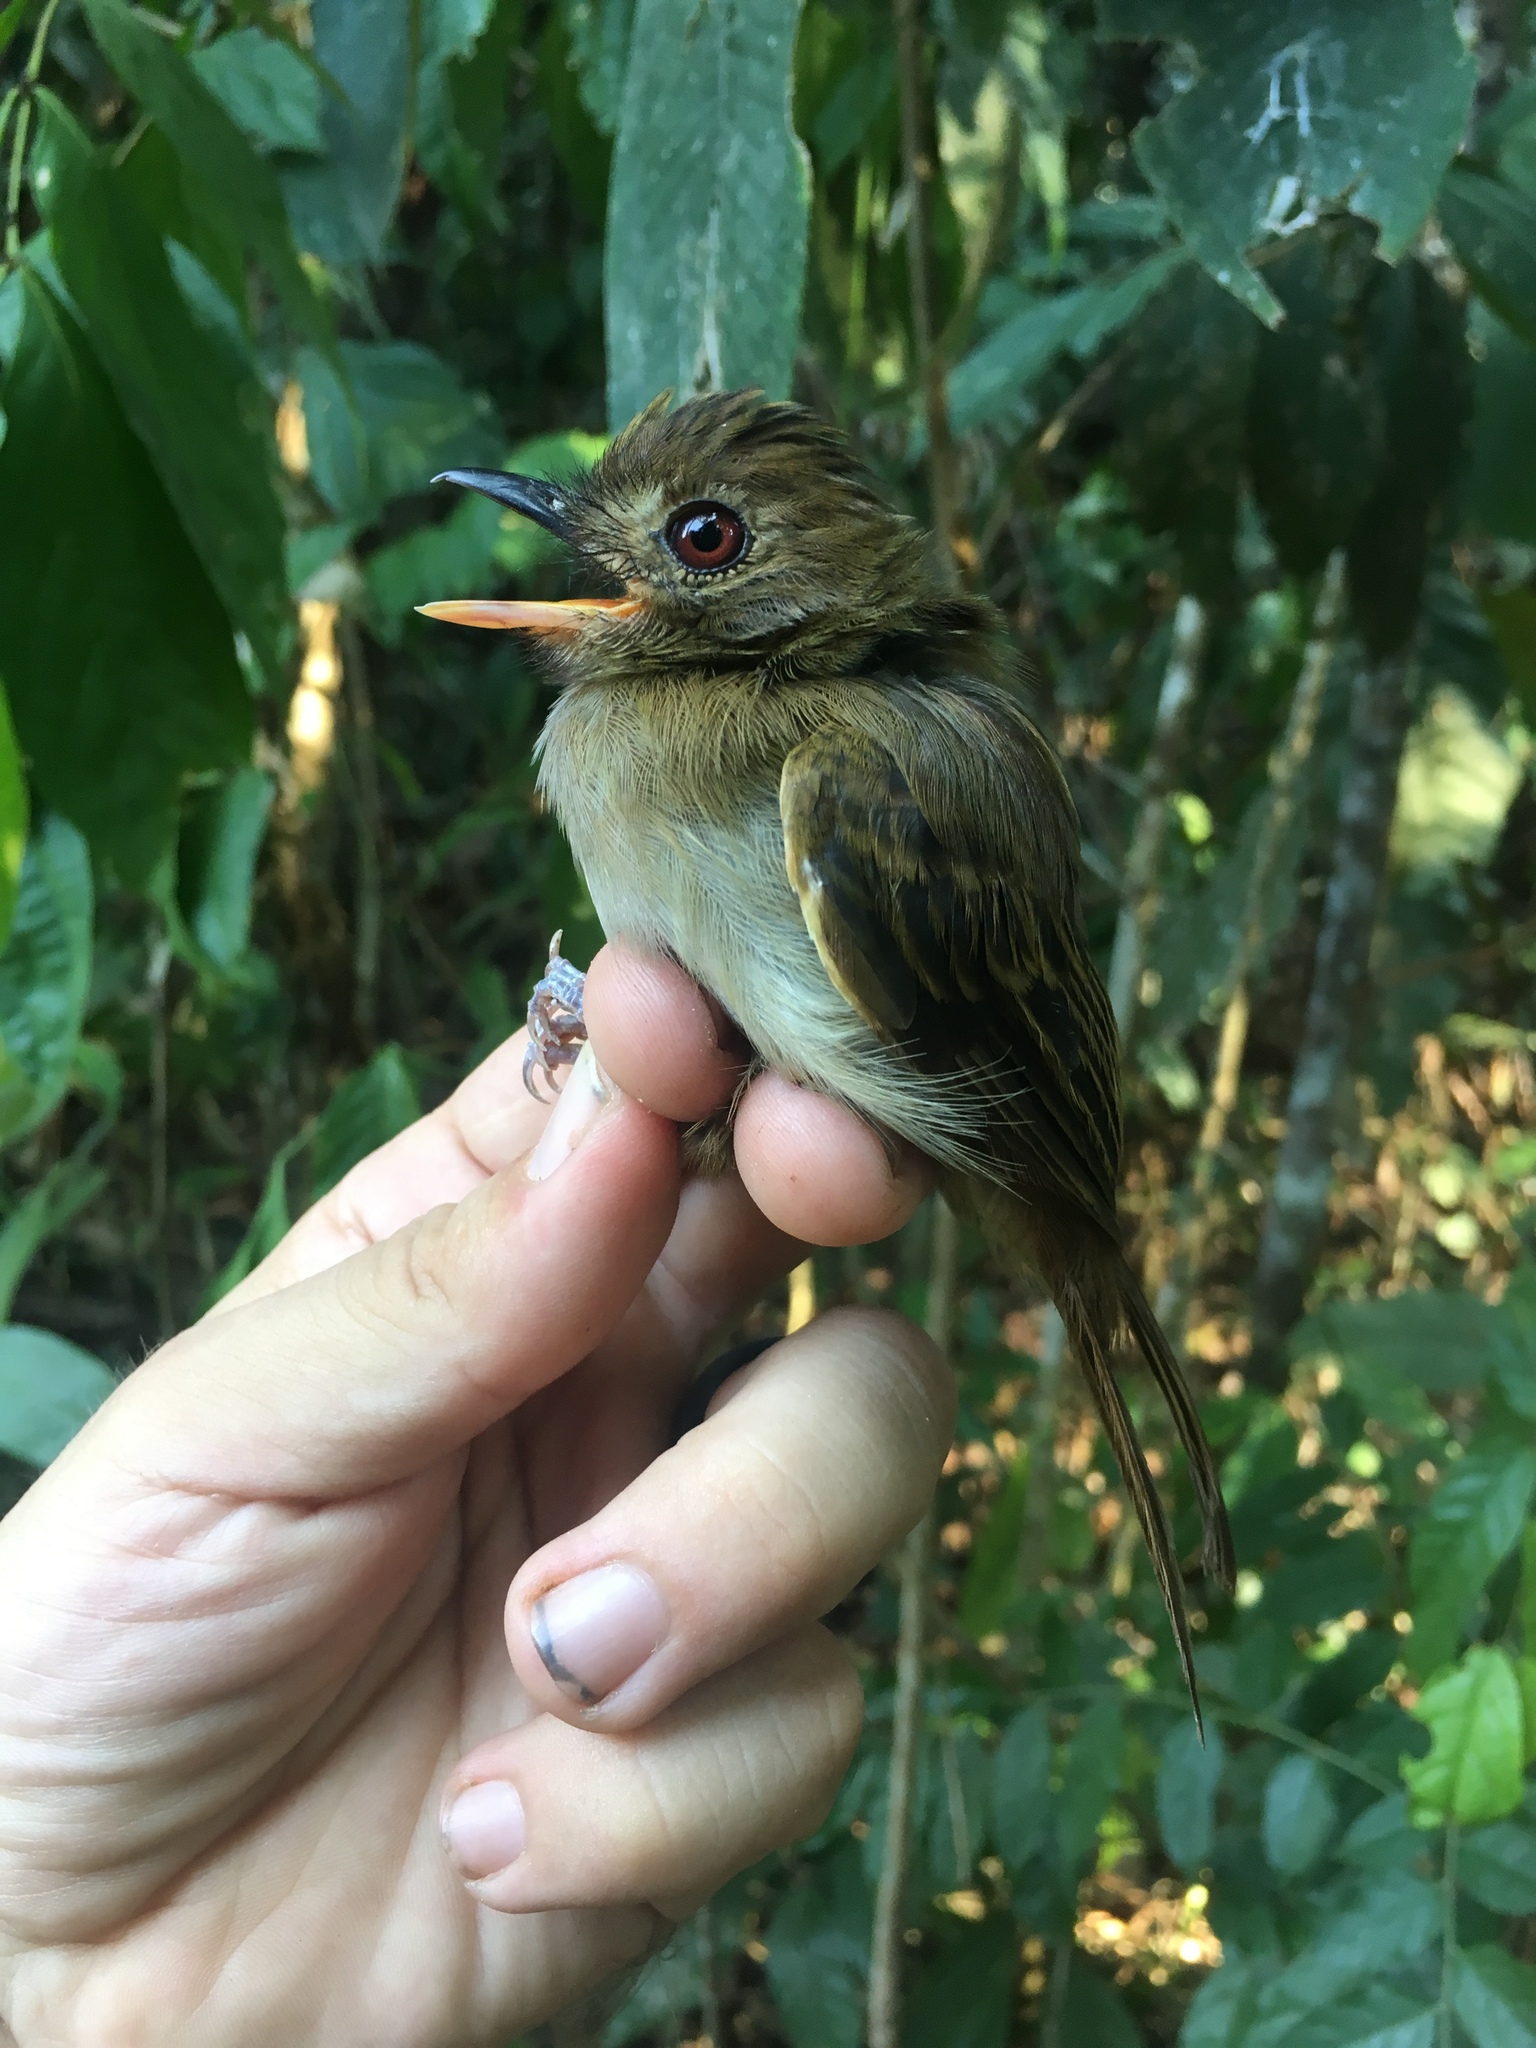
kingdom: Animalia
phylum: Chordata
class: Aves
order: Passeriformes
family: Tyrannidae
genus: Cnipodectes
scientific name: Cnipodectes subbrunneus
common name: Brownish twistwing
